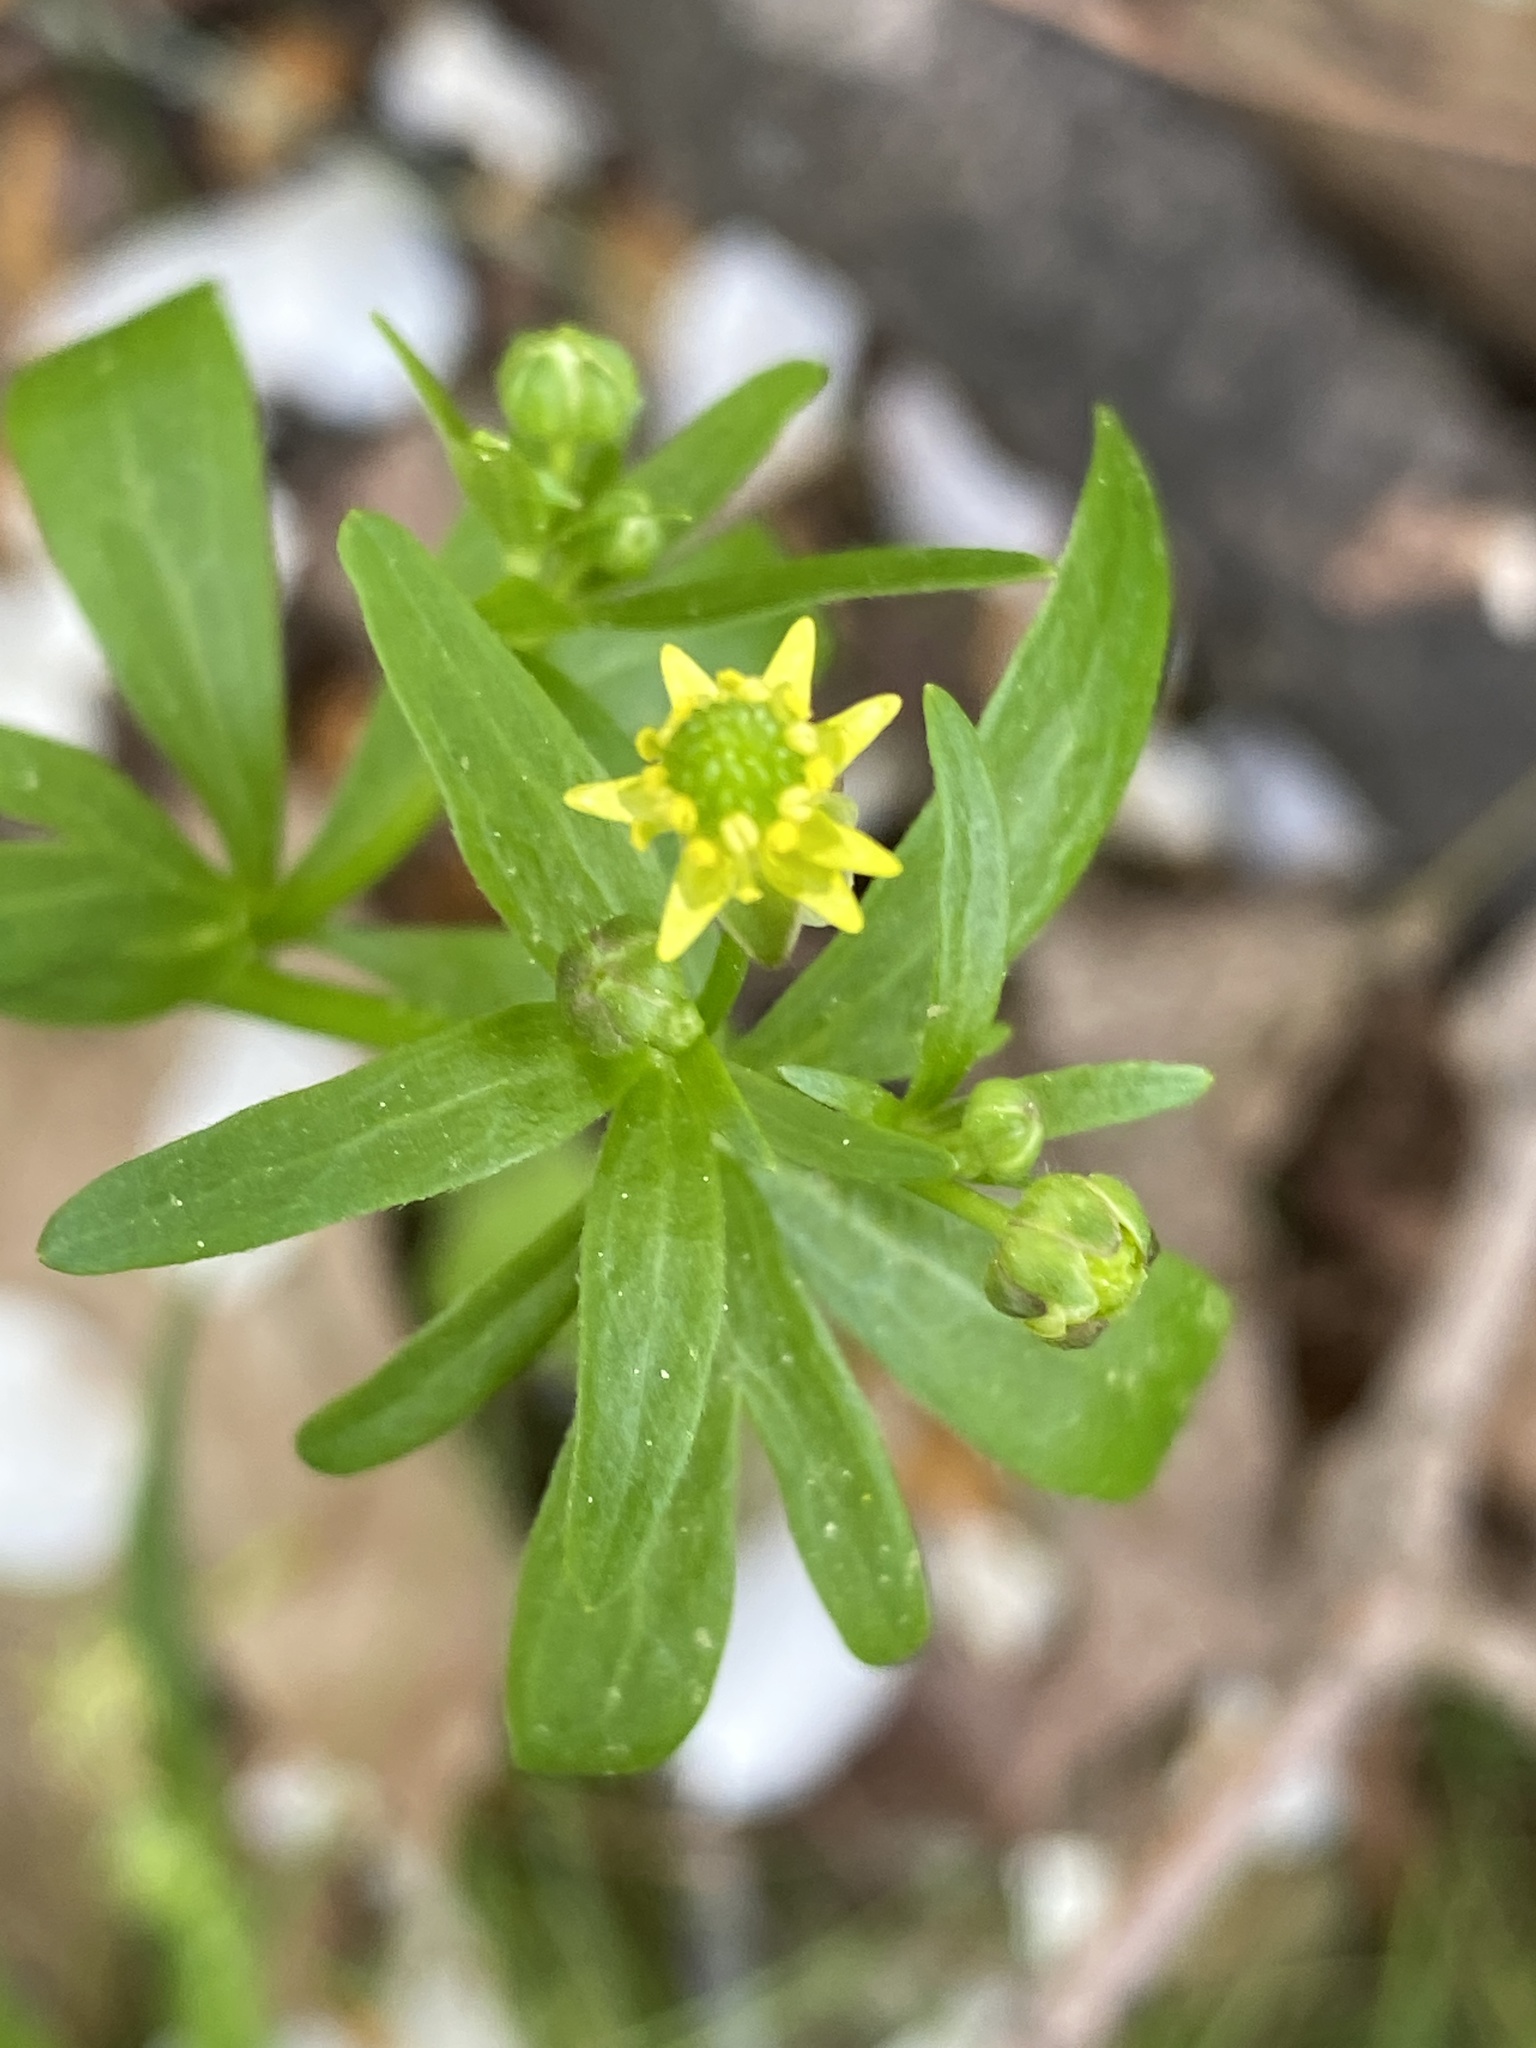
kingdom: Plantae
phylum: Tracheophyta
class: Magnoliopsida
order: Ranunculales
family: Ranunculaceae
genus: Ranunculus
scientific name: Ranunculus abortivus
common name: Early wood buttercup
